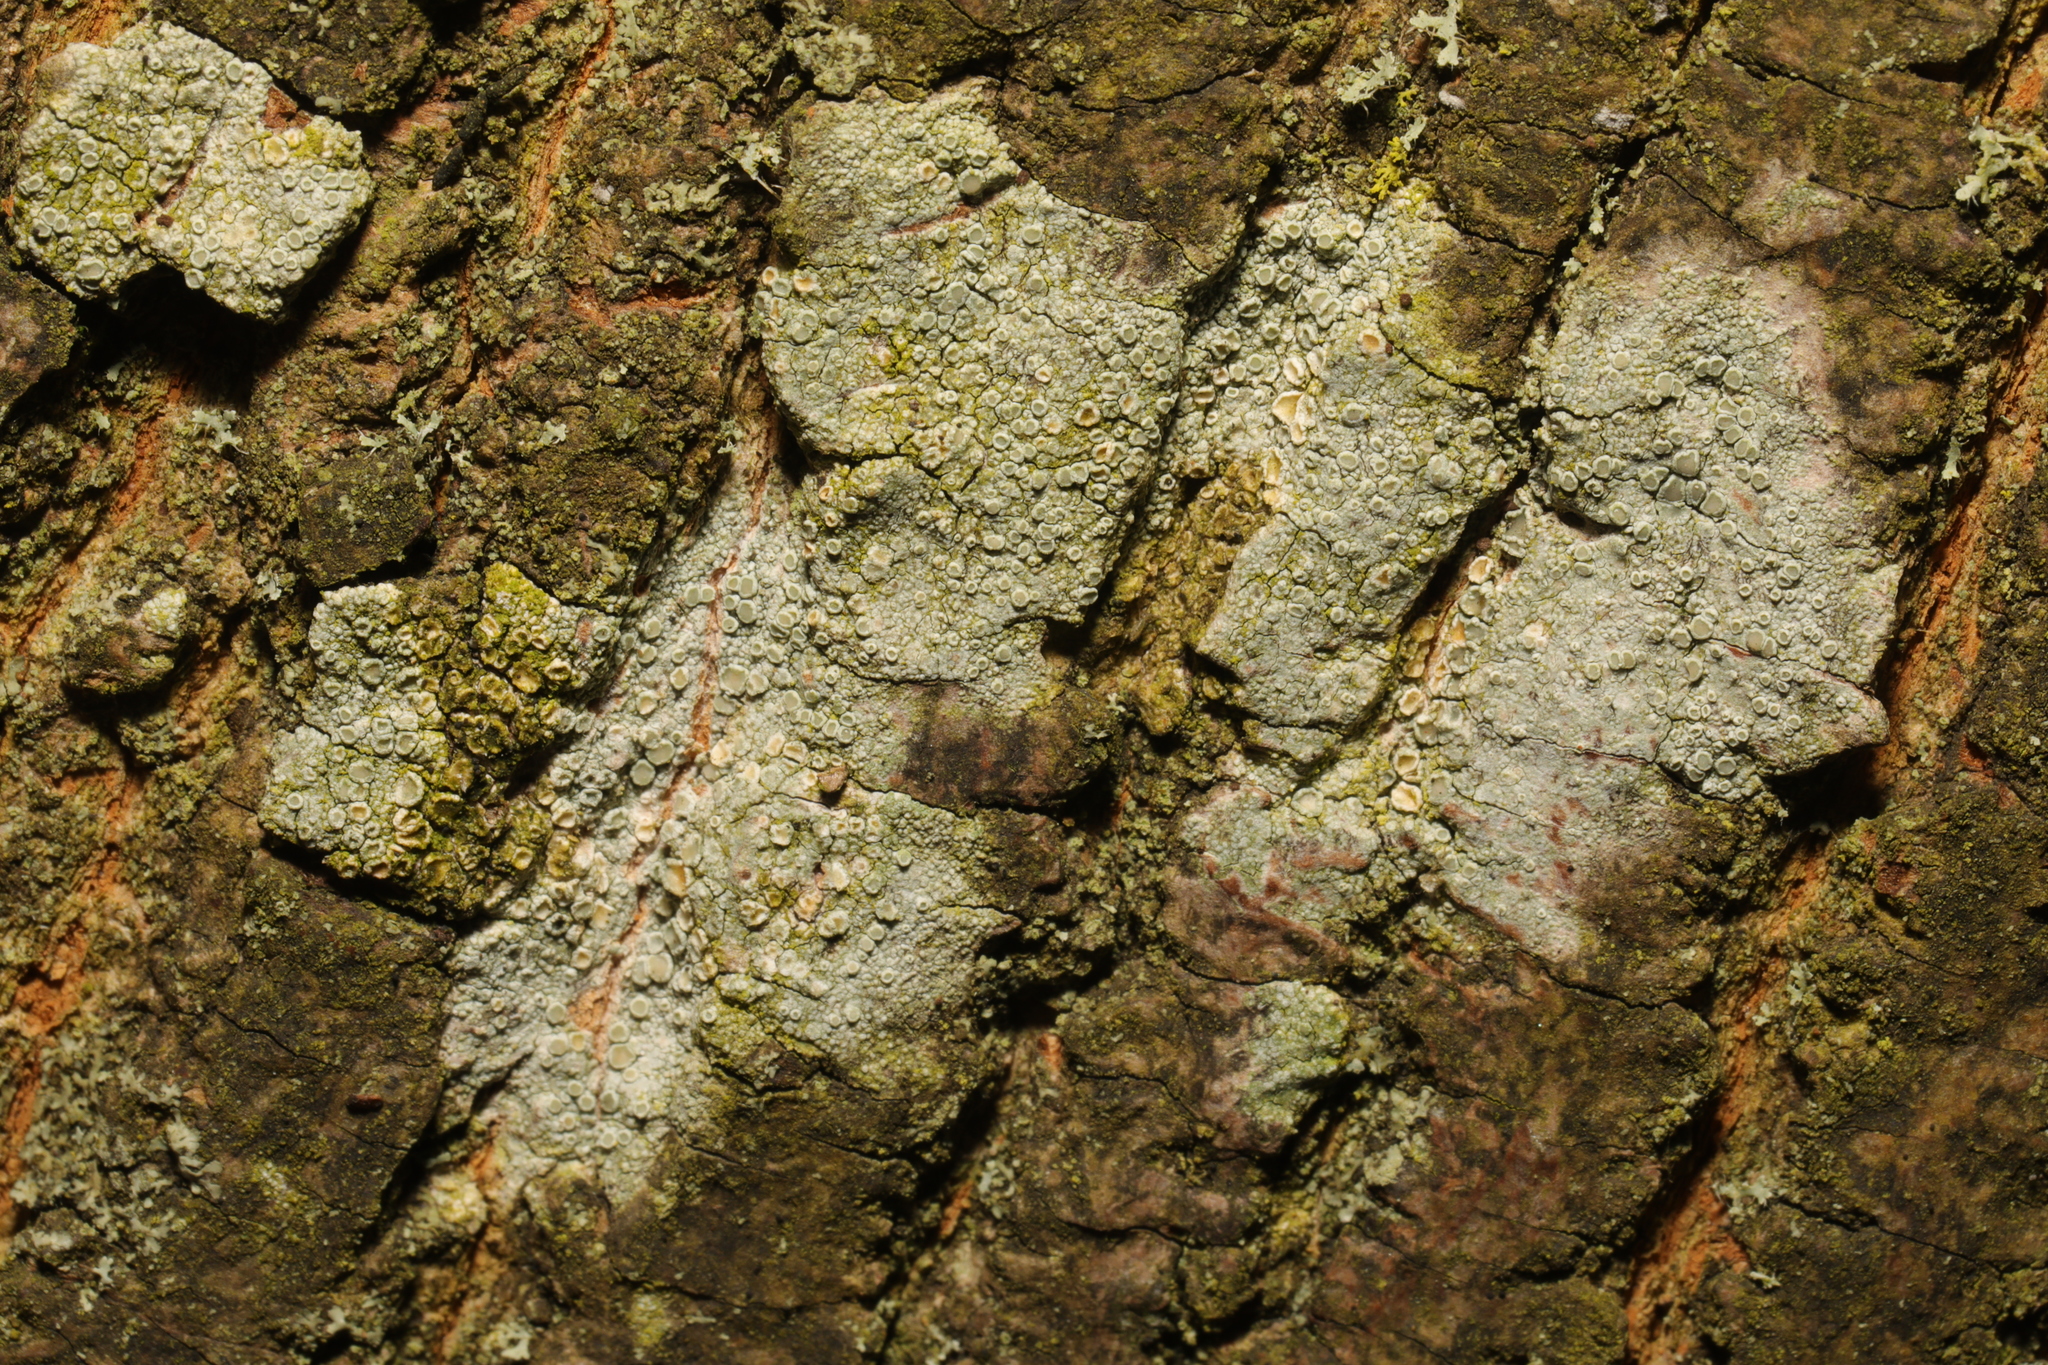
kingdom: Fungi
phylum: Ascomycota
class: Lecanoromycetes
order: Lecanorales
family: Lecanoraceae
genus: Lecanora
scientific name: Lecanora chlarotera
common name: Brown rim-lichen
